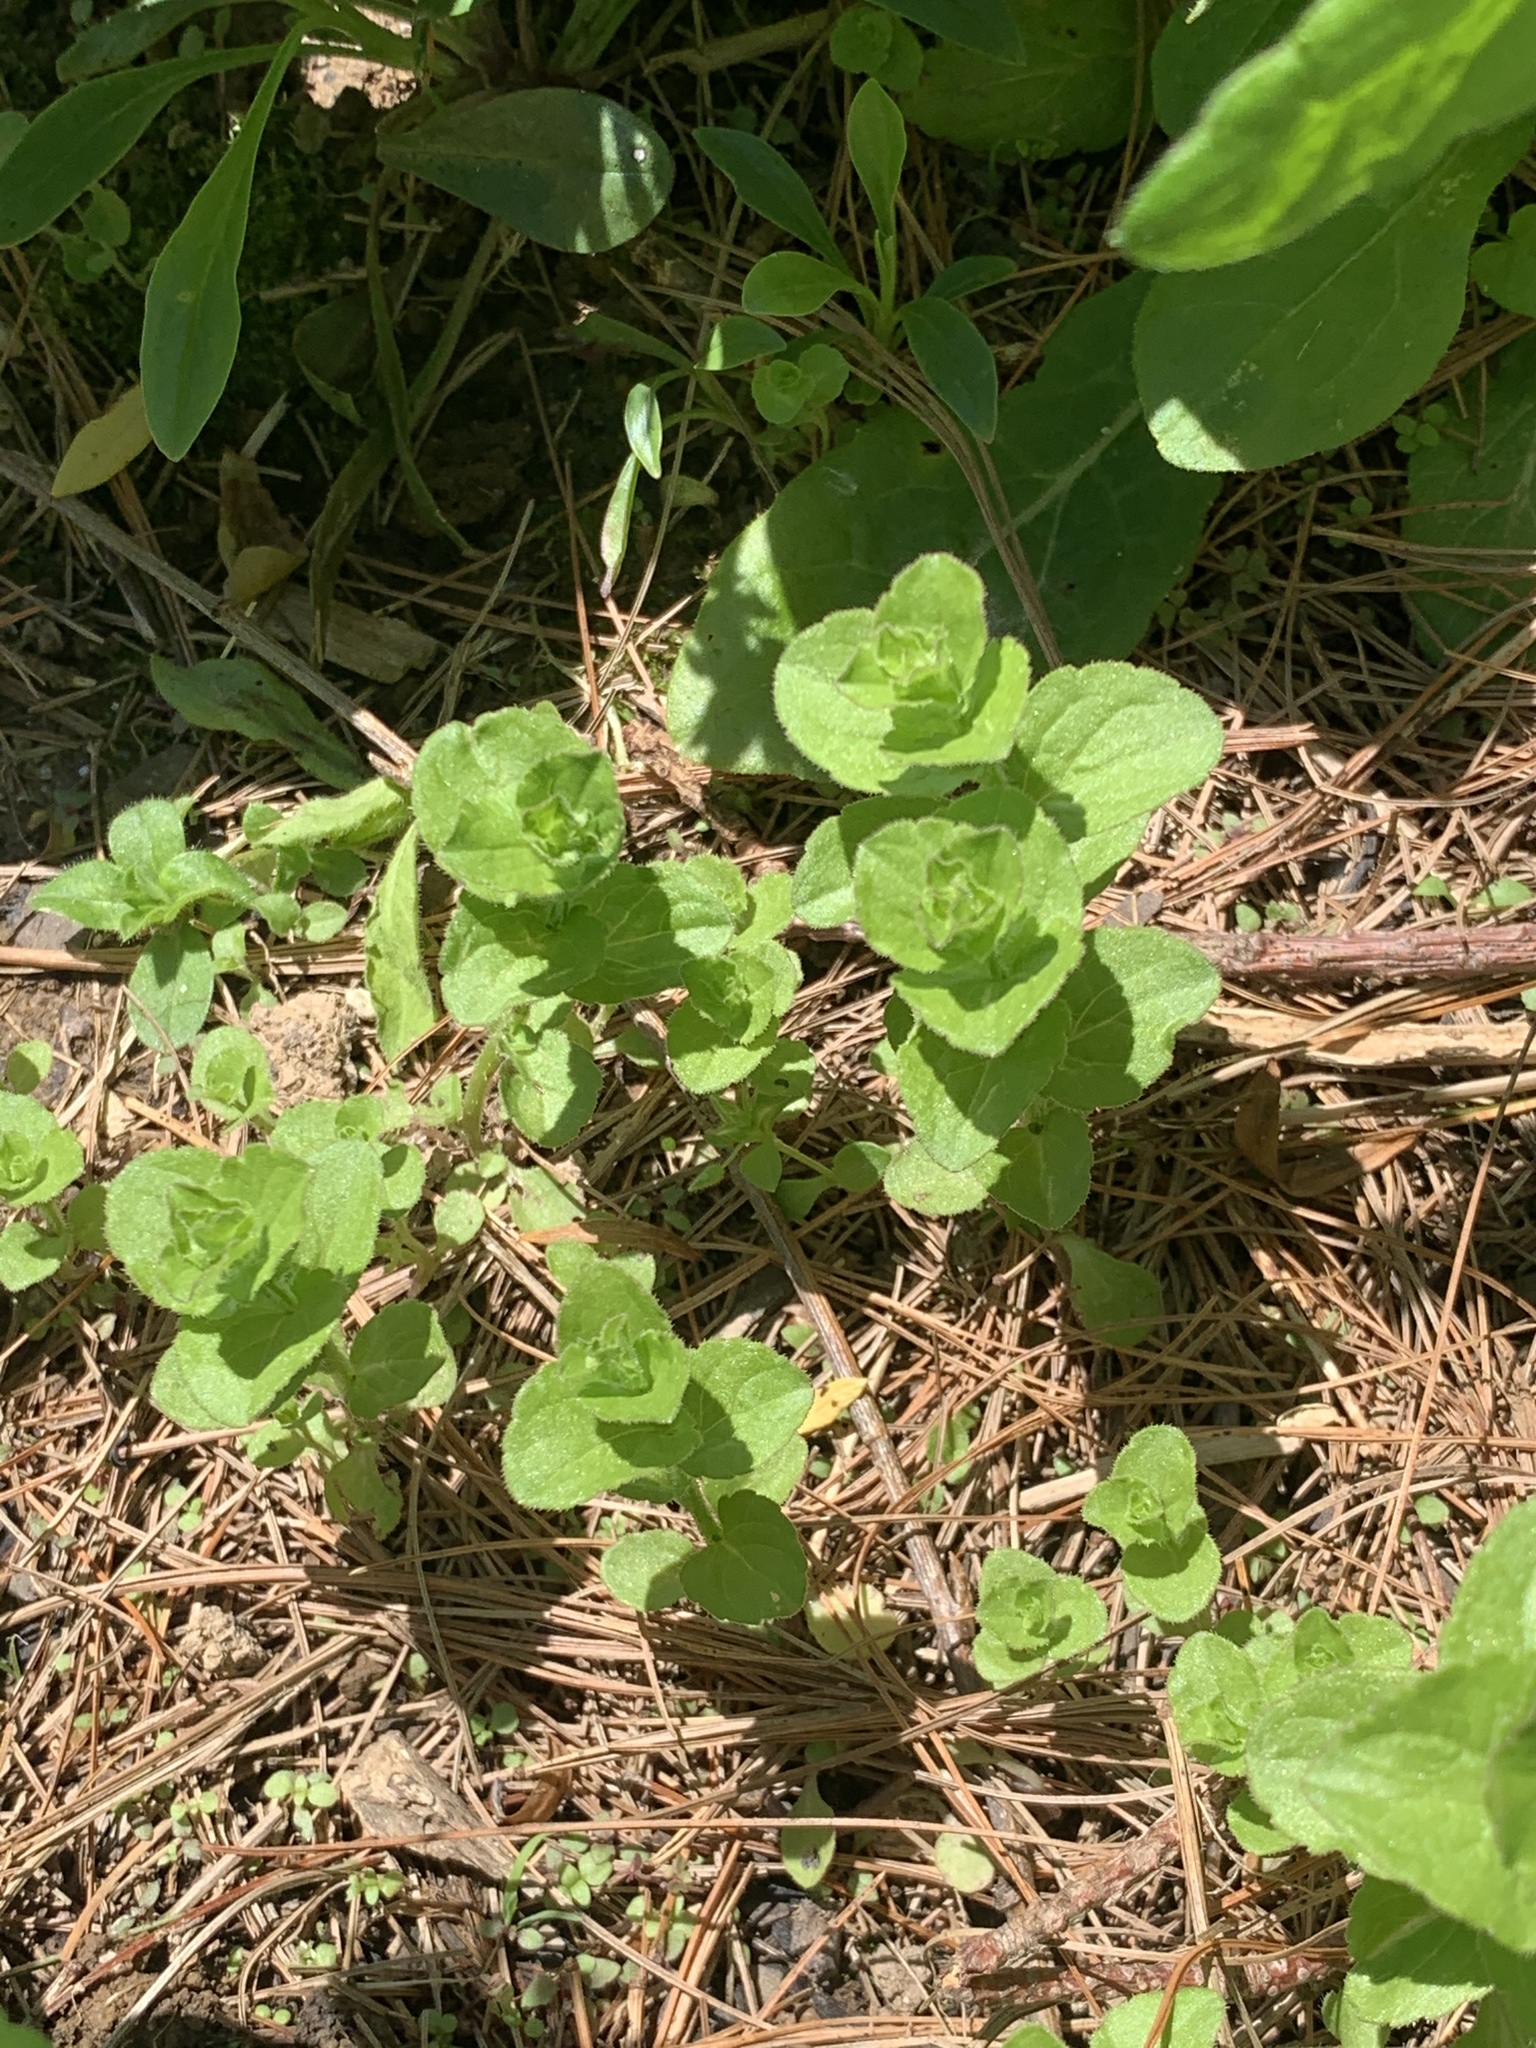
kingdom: Plantae
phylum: Tracheophyta
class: Magnoliopsida
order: Asterales
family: Campanulaceae
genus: Triodanis
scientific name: Triodanis perfoliata
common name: Clasping venus' looking-glass
